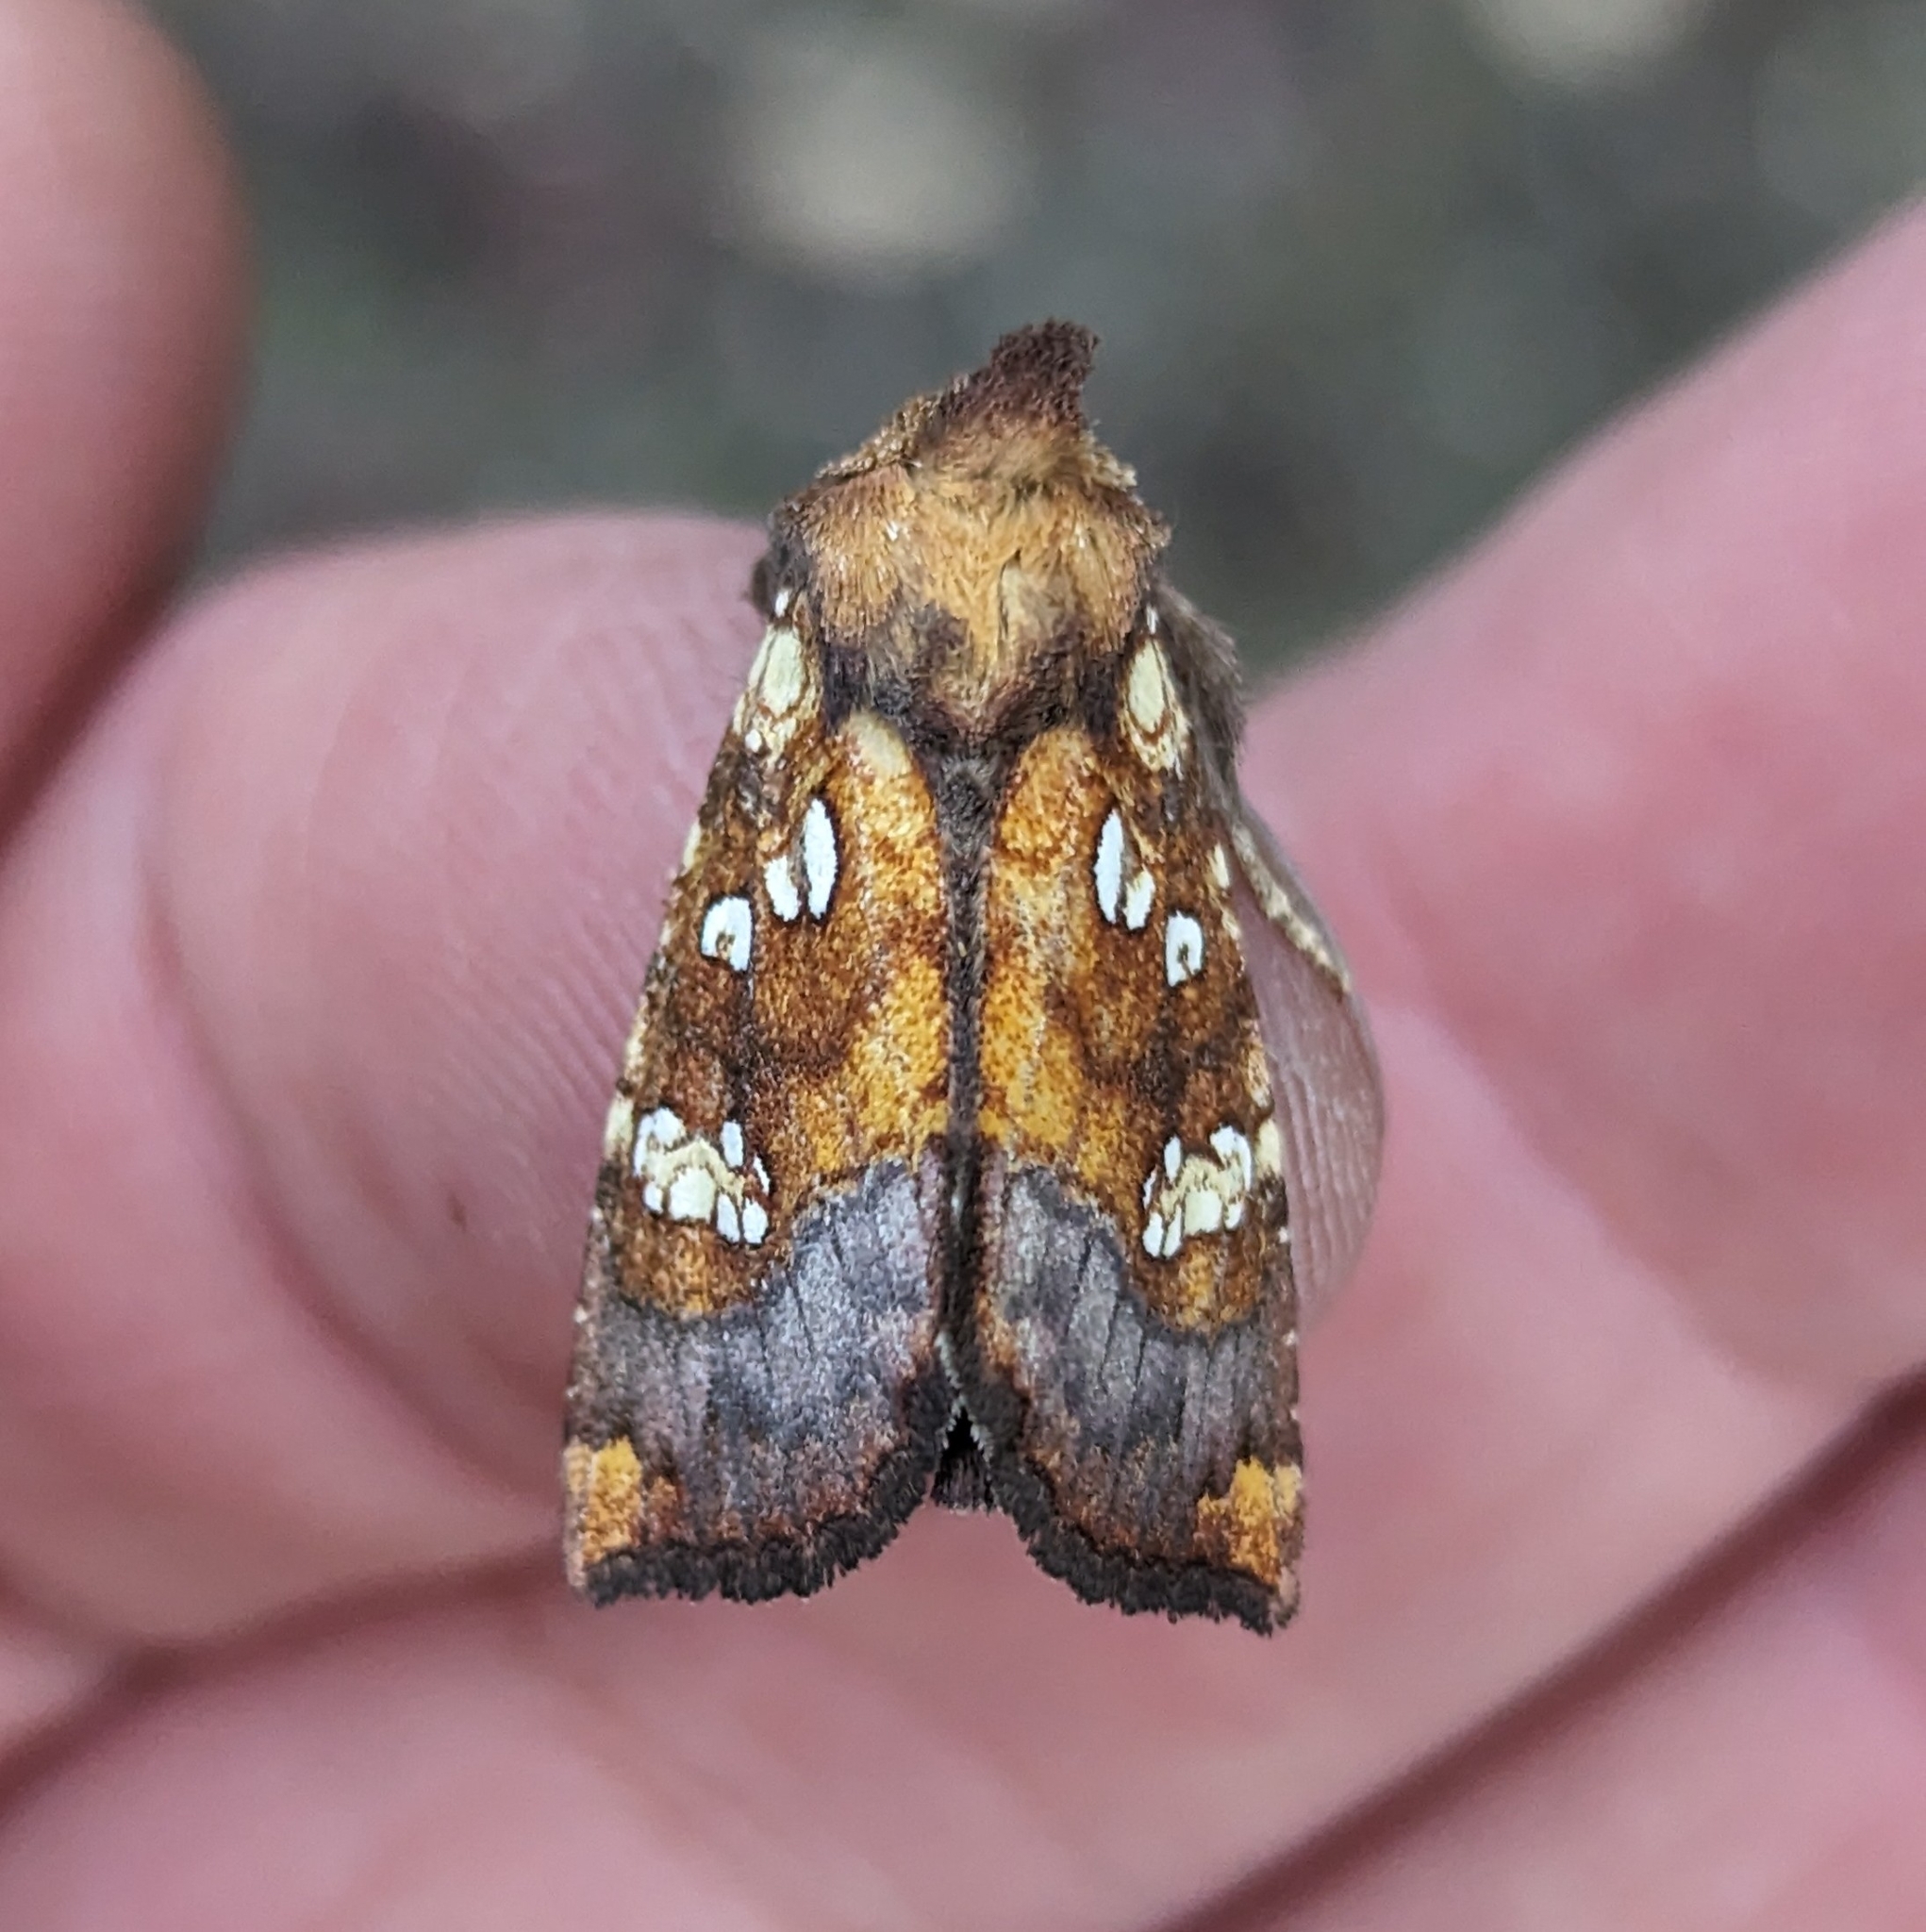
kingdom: Animalia
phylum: Arthropoda
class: Insecta
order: Lepidoptera
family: Noctuidae
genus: Papaipema
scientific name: Papaipema insulidens
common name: Ragwort stem borer moth
